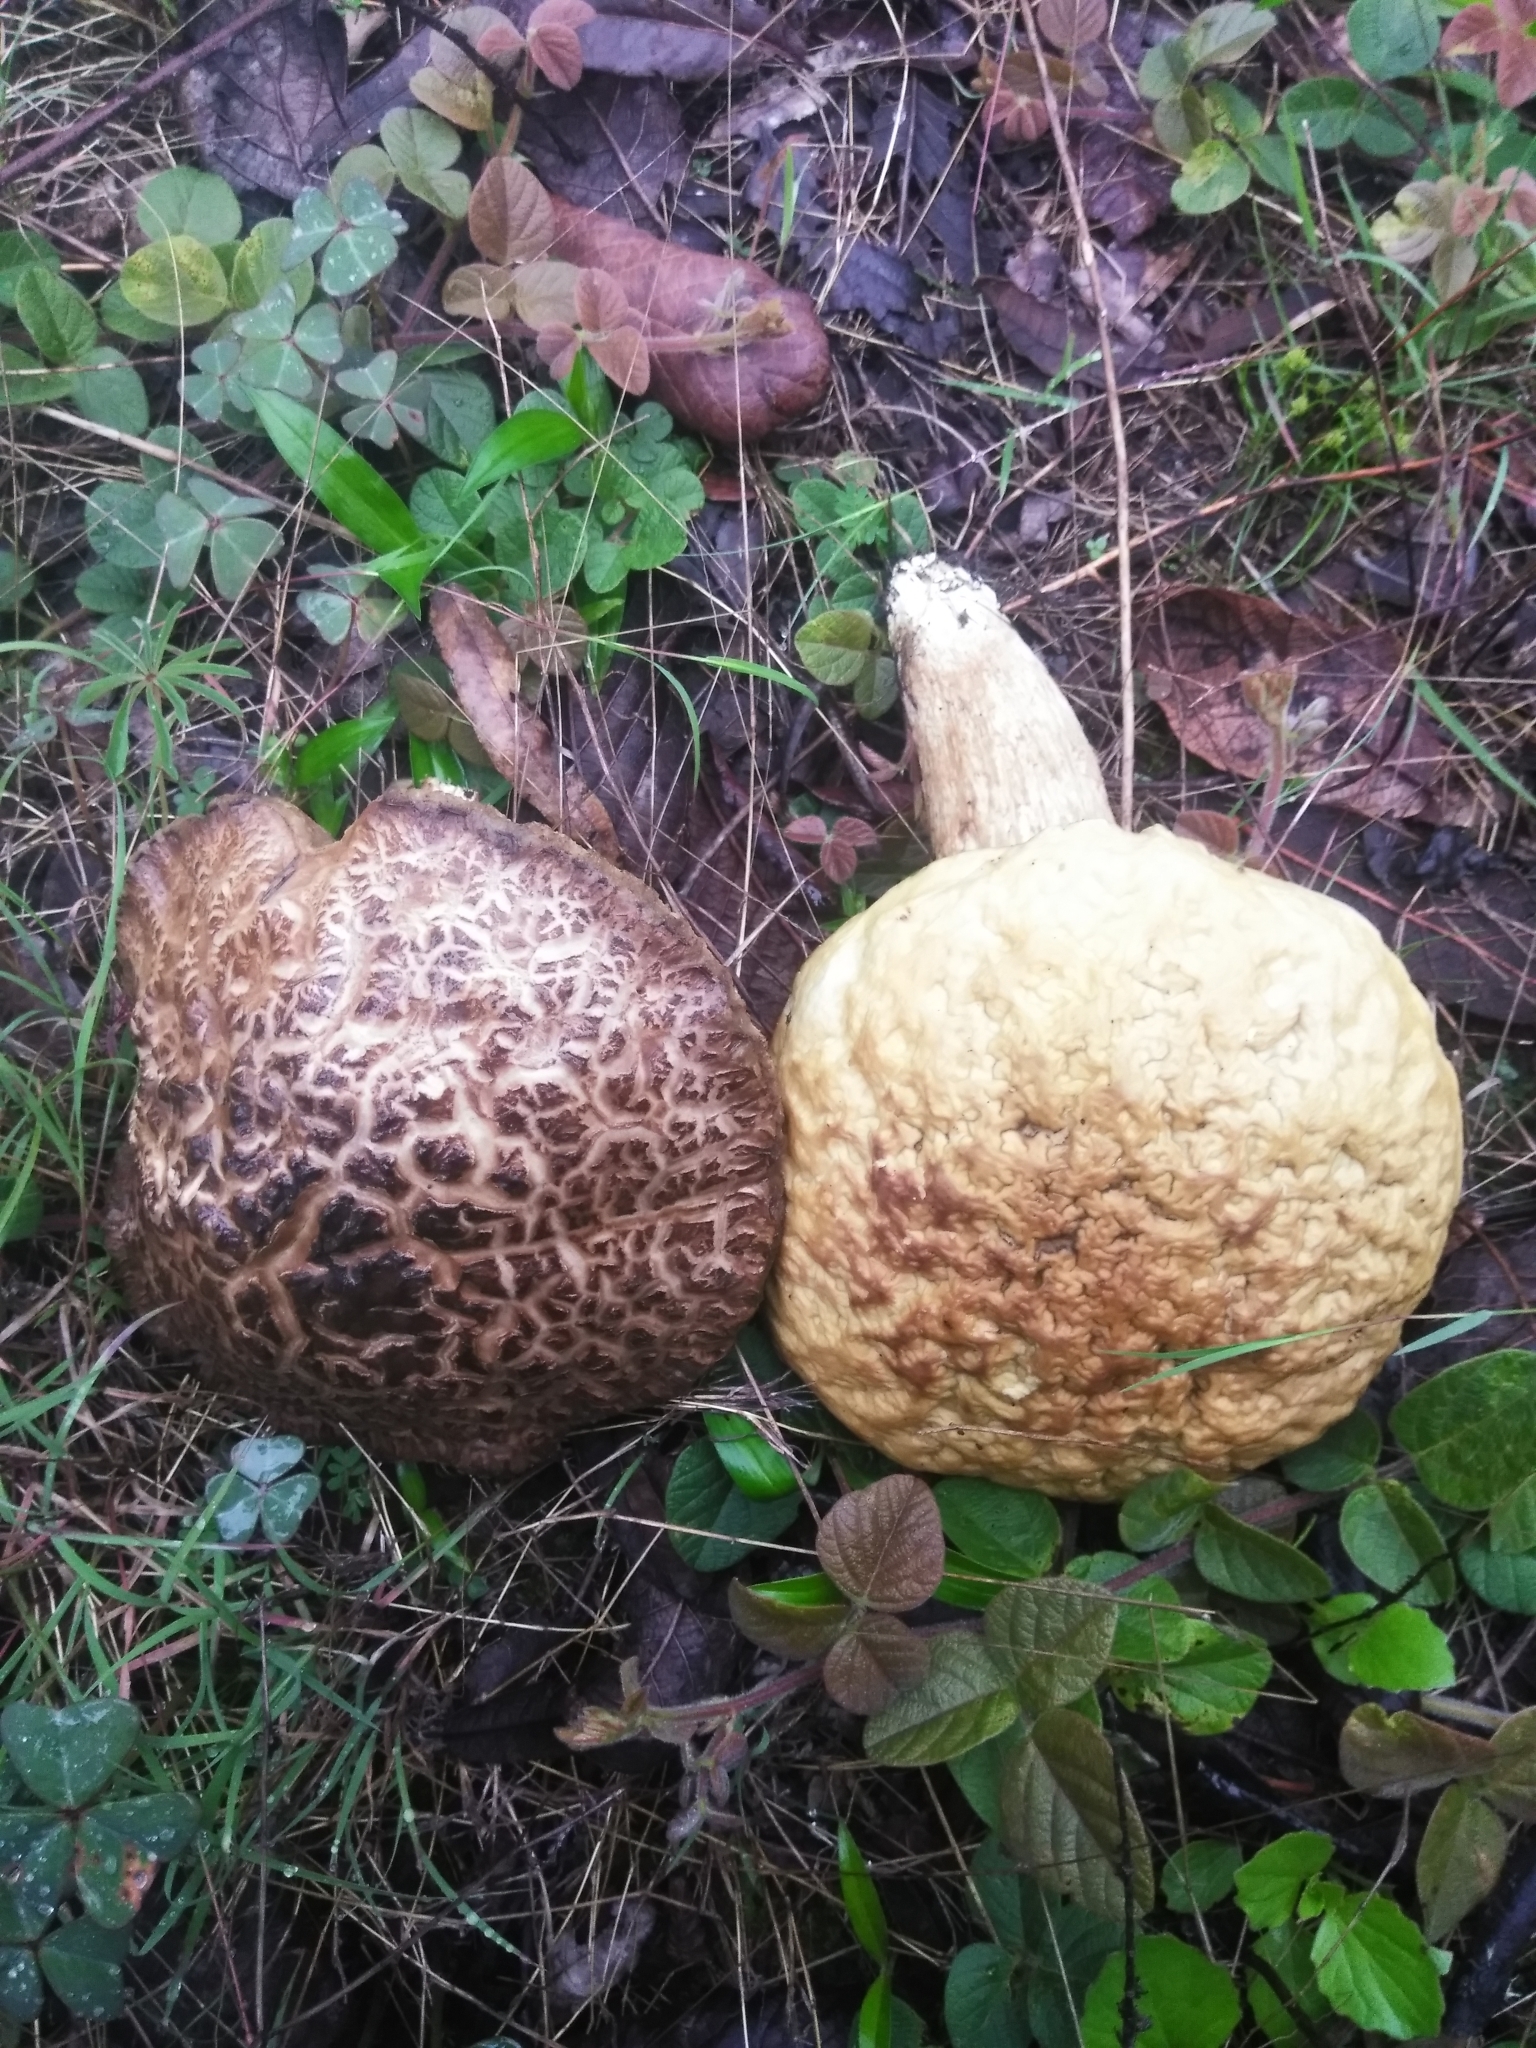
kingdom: Fungi
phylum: Basidiomycota
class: Agaricomycetes
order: Boletales
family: Boletaceae
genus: Leccinellum
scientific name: Leccinellum rugosiceps
